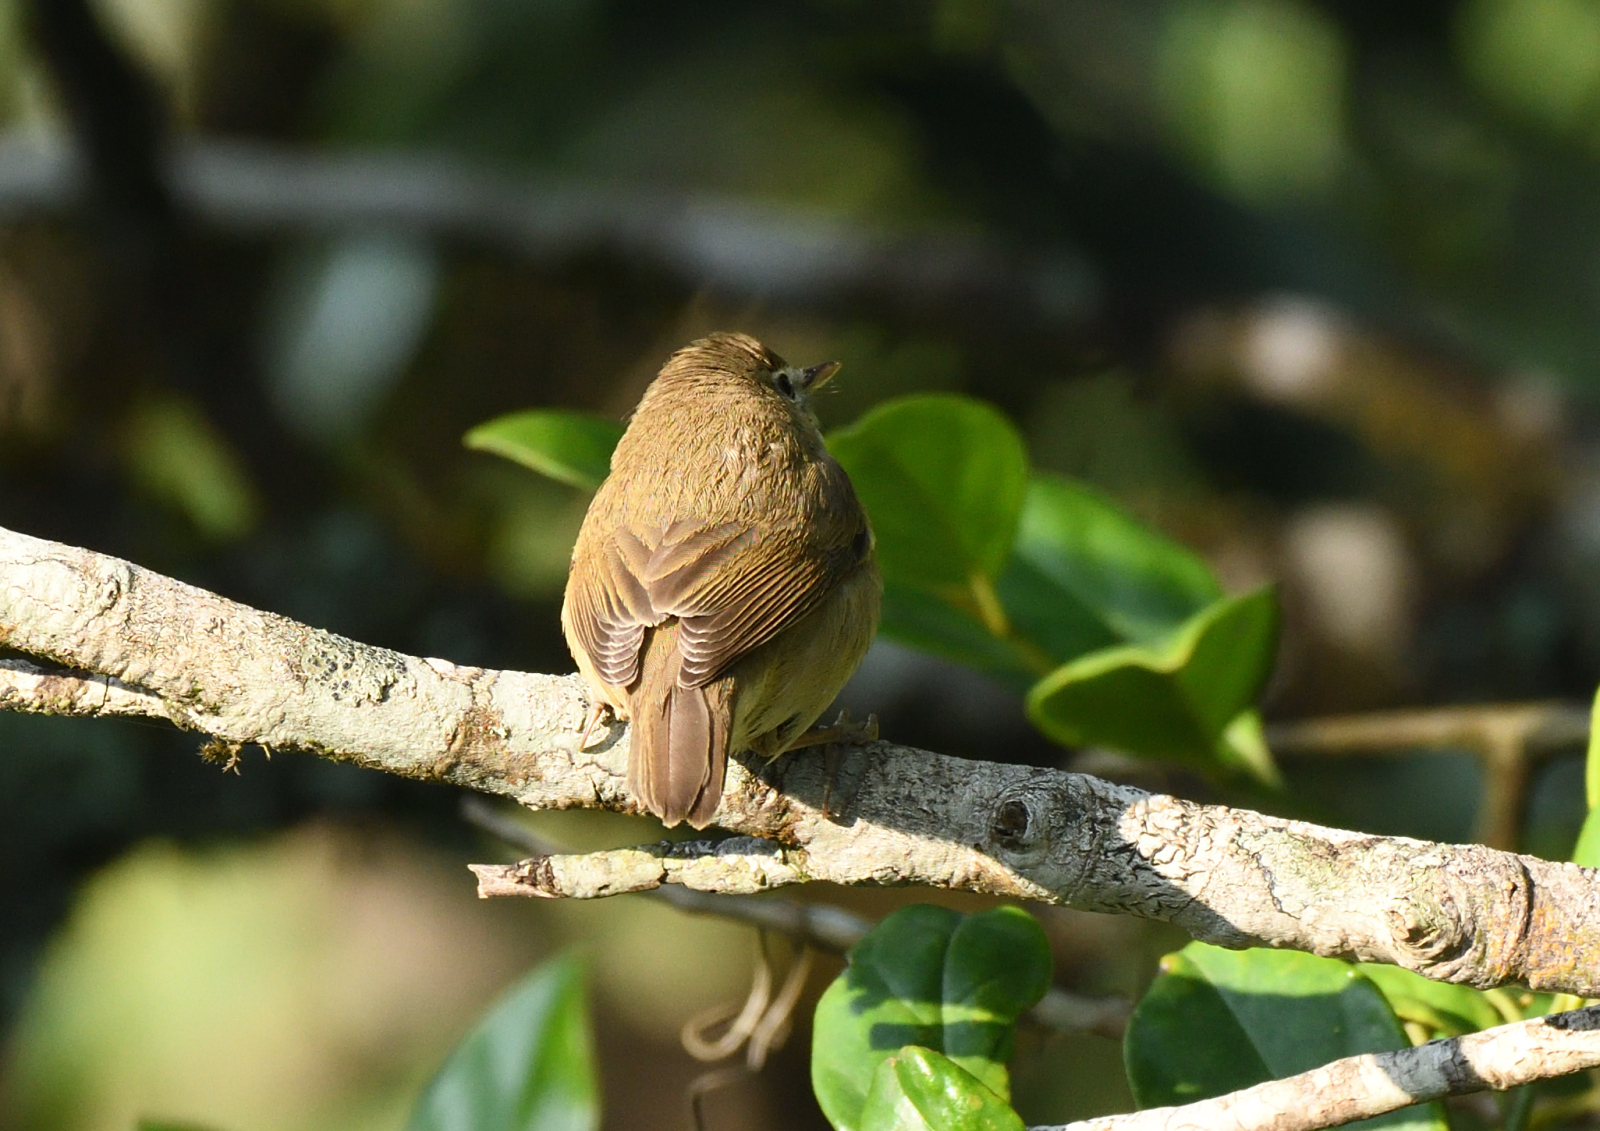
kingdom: Animalia
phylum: Chordata
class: Aves
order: Passeriformes
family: Acrocephalidae
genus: Iduna
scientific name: Iduna caligata
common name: Booted warbler
